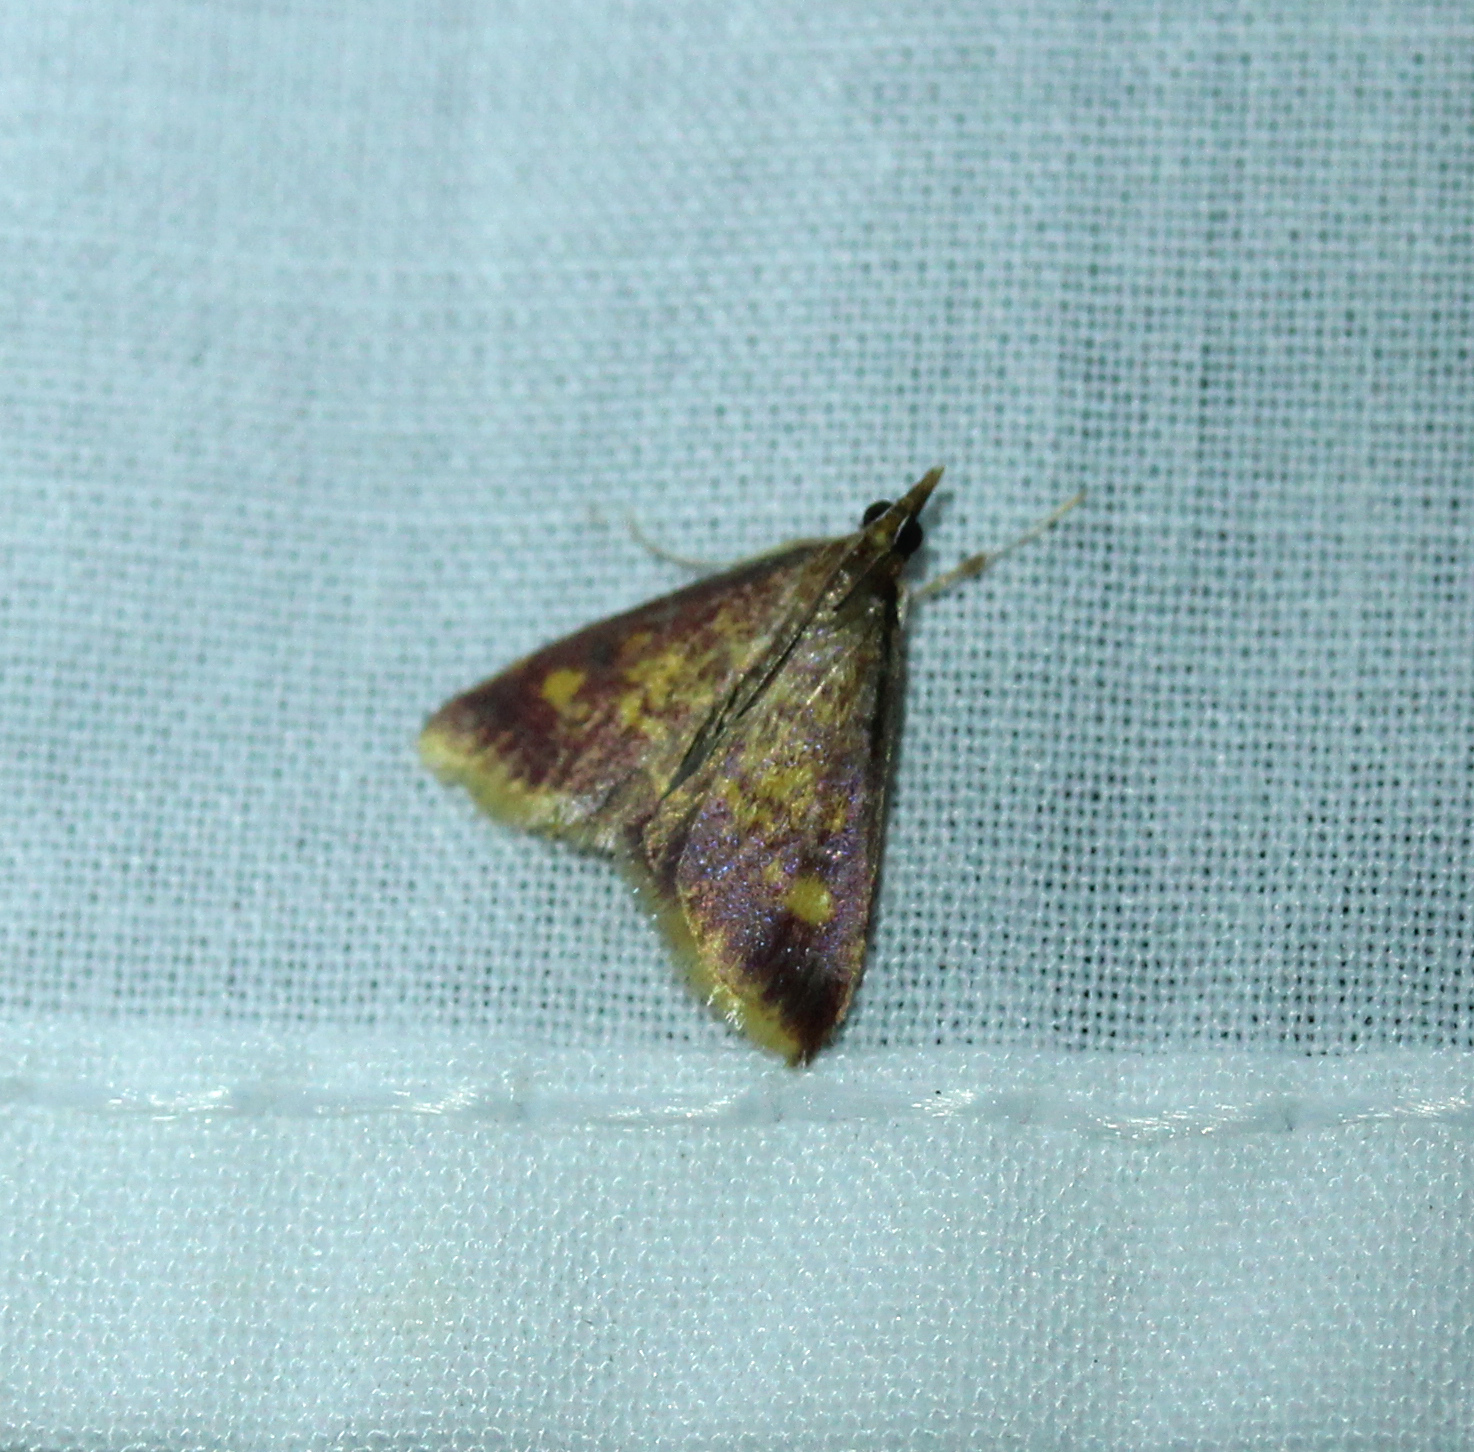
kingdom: Animalia
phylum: Arthropoda
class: Insecta
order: Lepidoptera
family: Crambidae
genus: Pyrausta
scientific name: Pyrausta acrionalis
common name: Mint-loving pyrausta moth
